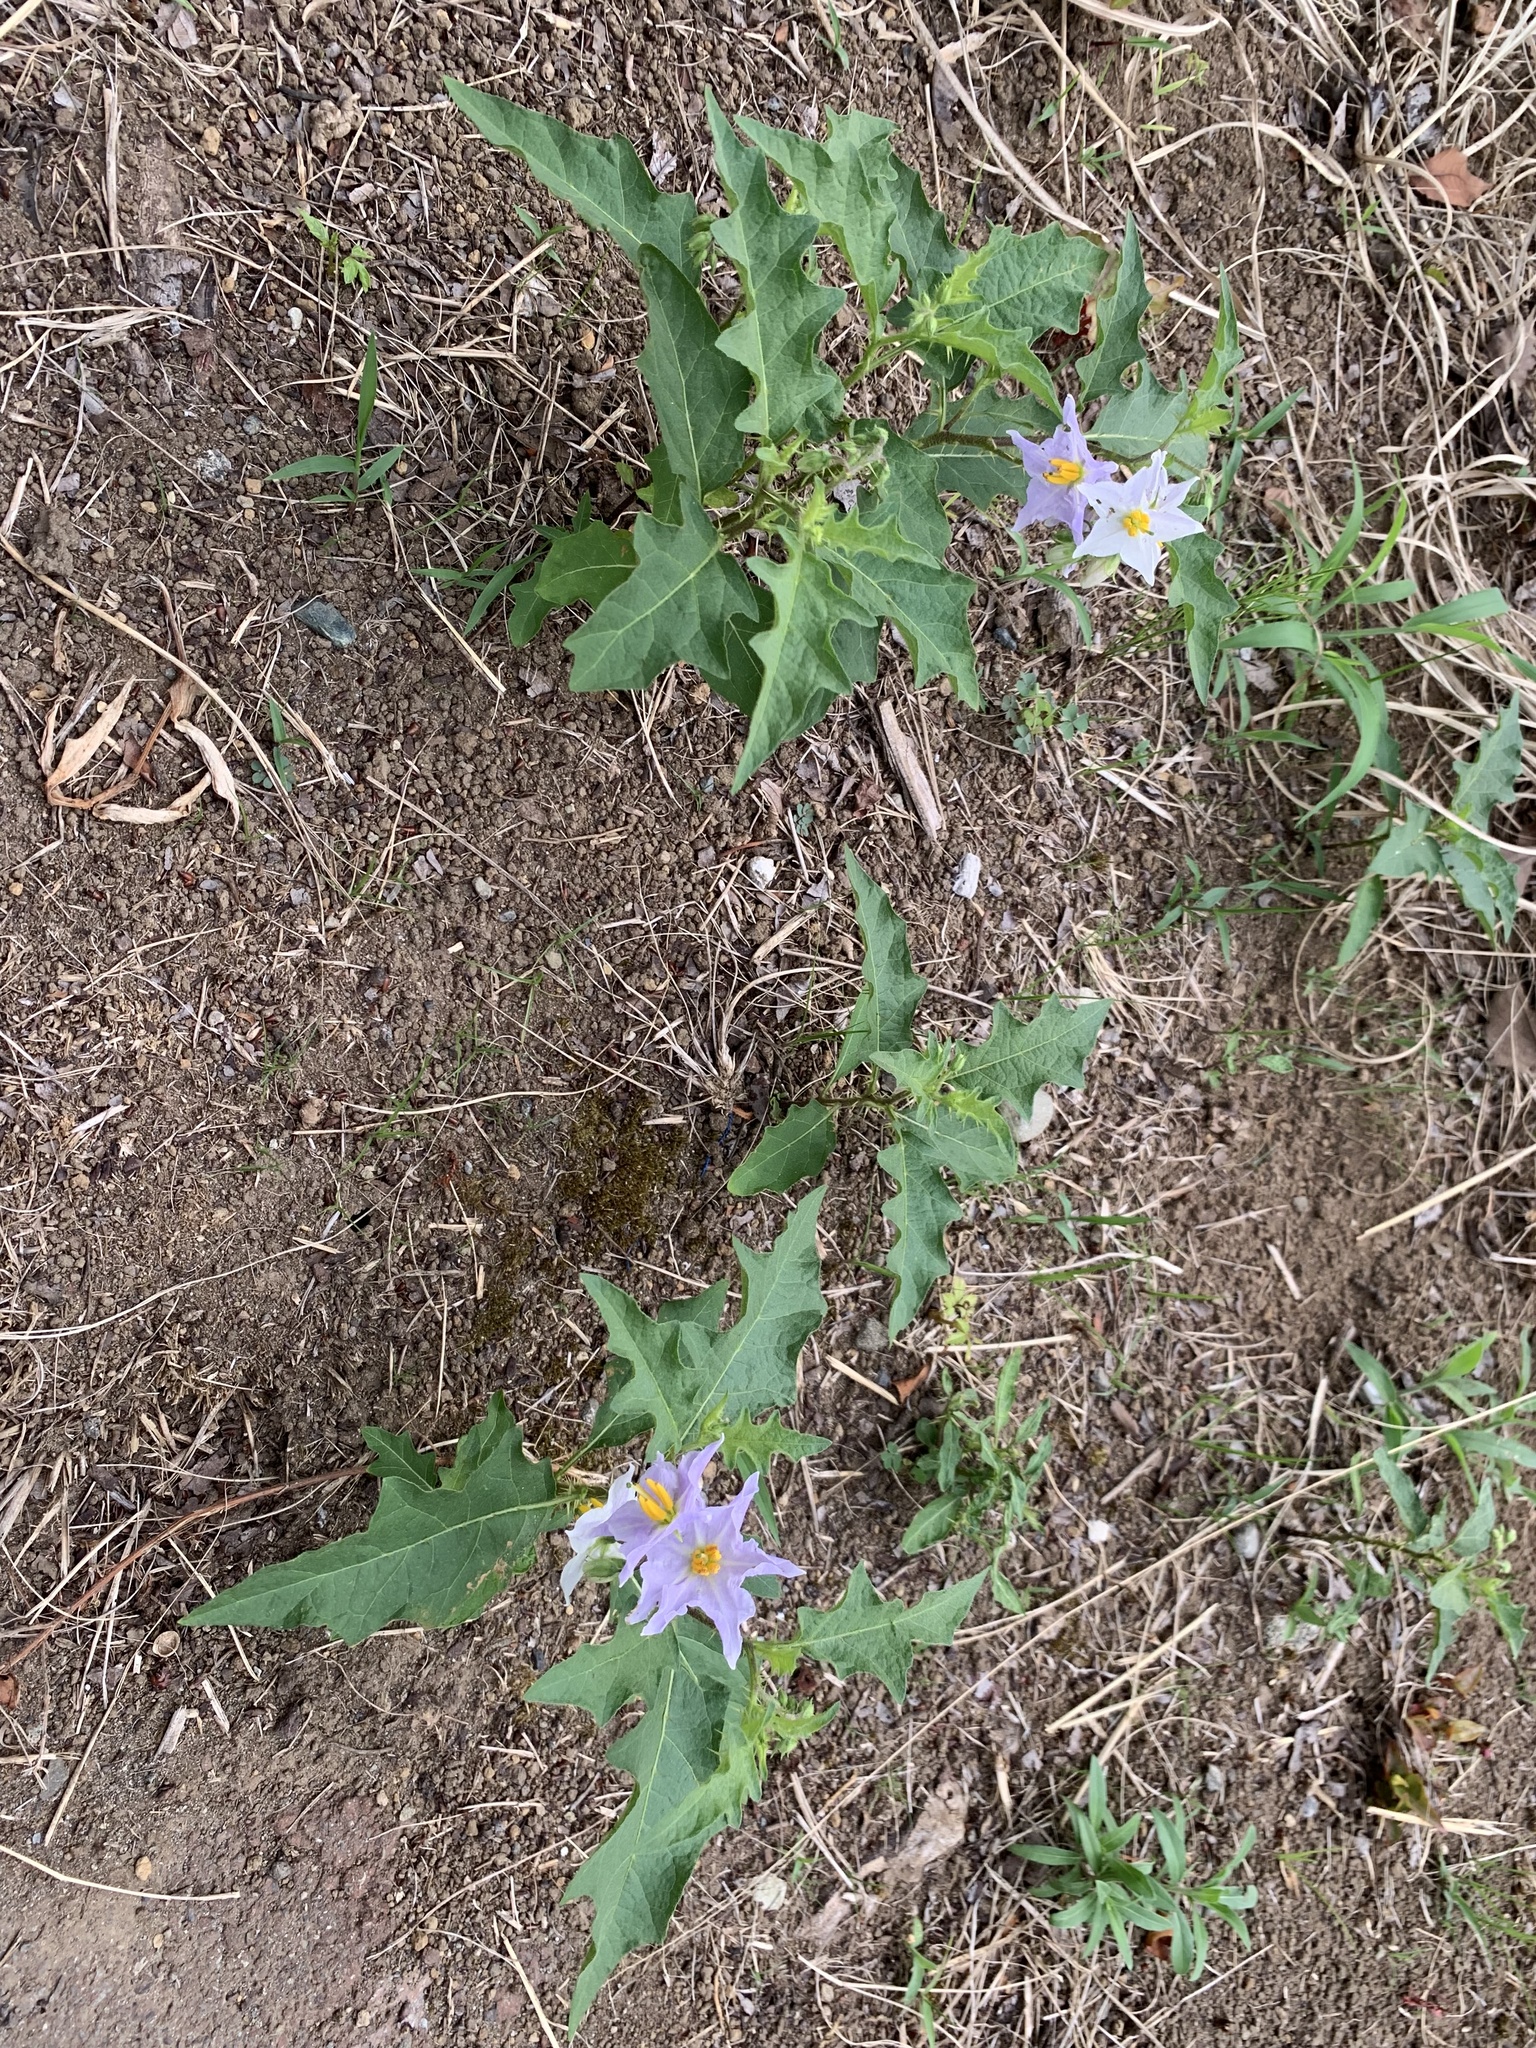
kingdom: Plantae
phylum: Tracheophyta
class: Magnoliopsida
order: Solanales
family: Solanaceae
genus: Solanum
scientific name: Solanum carolinense
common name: Horse-nettle
